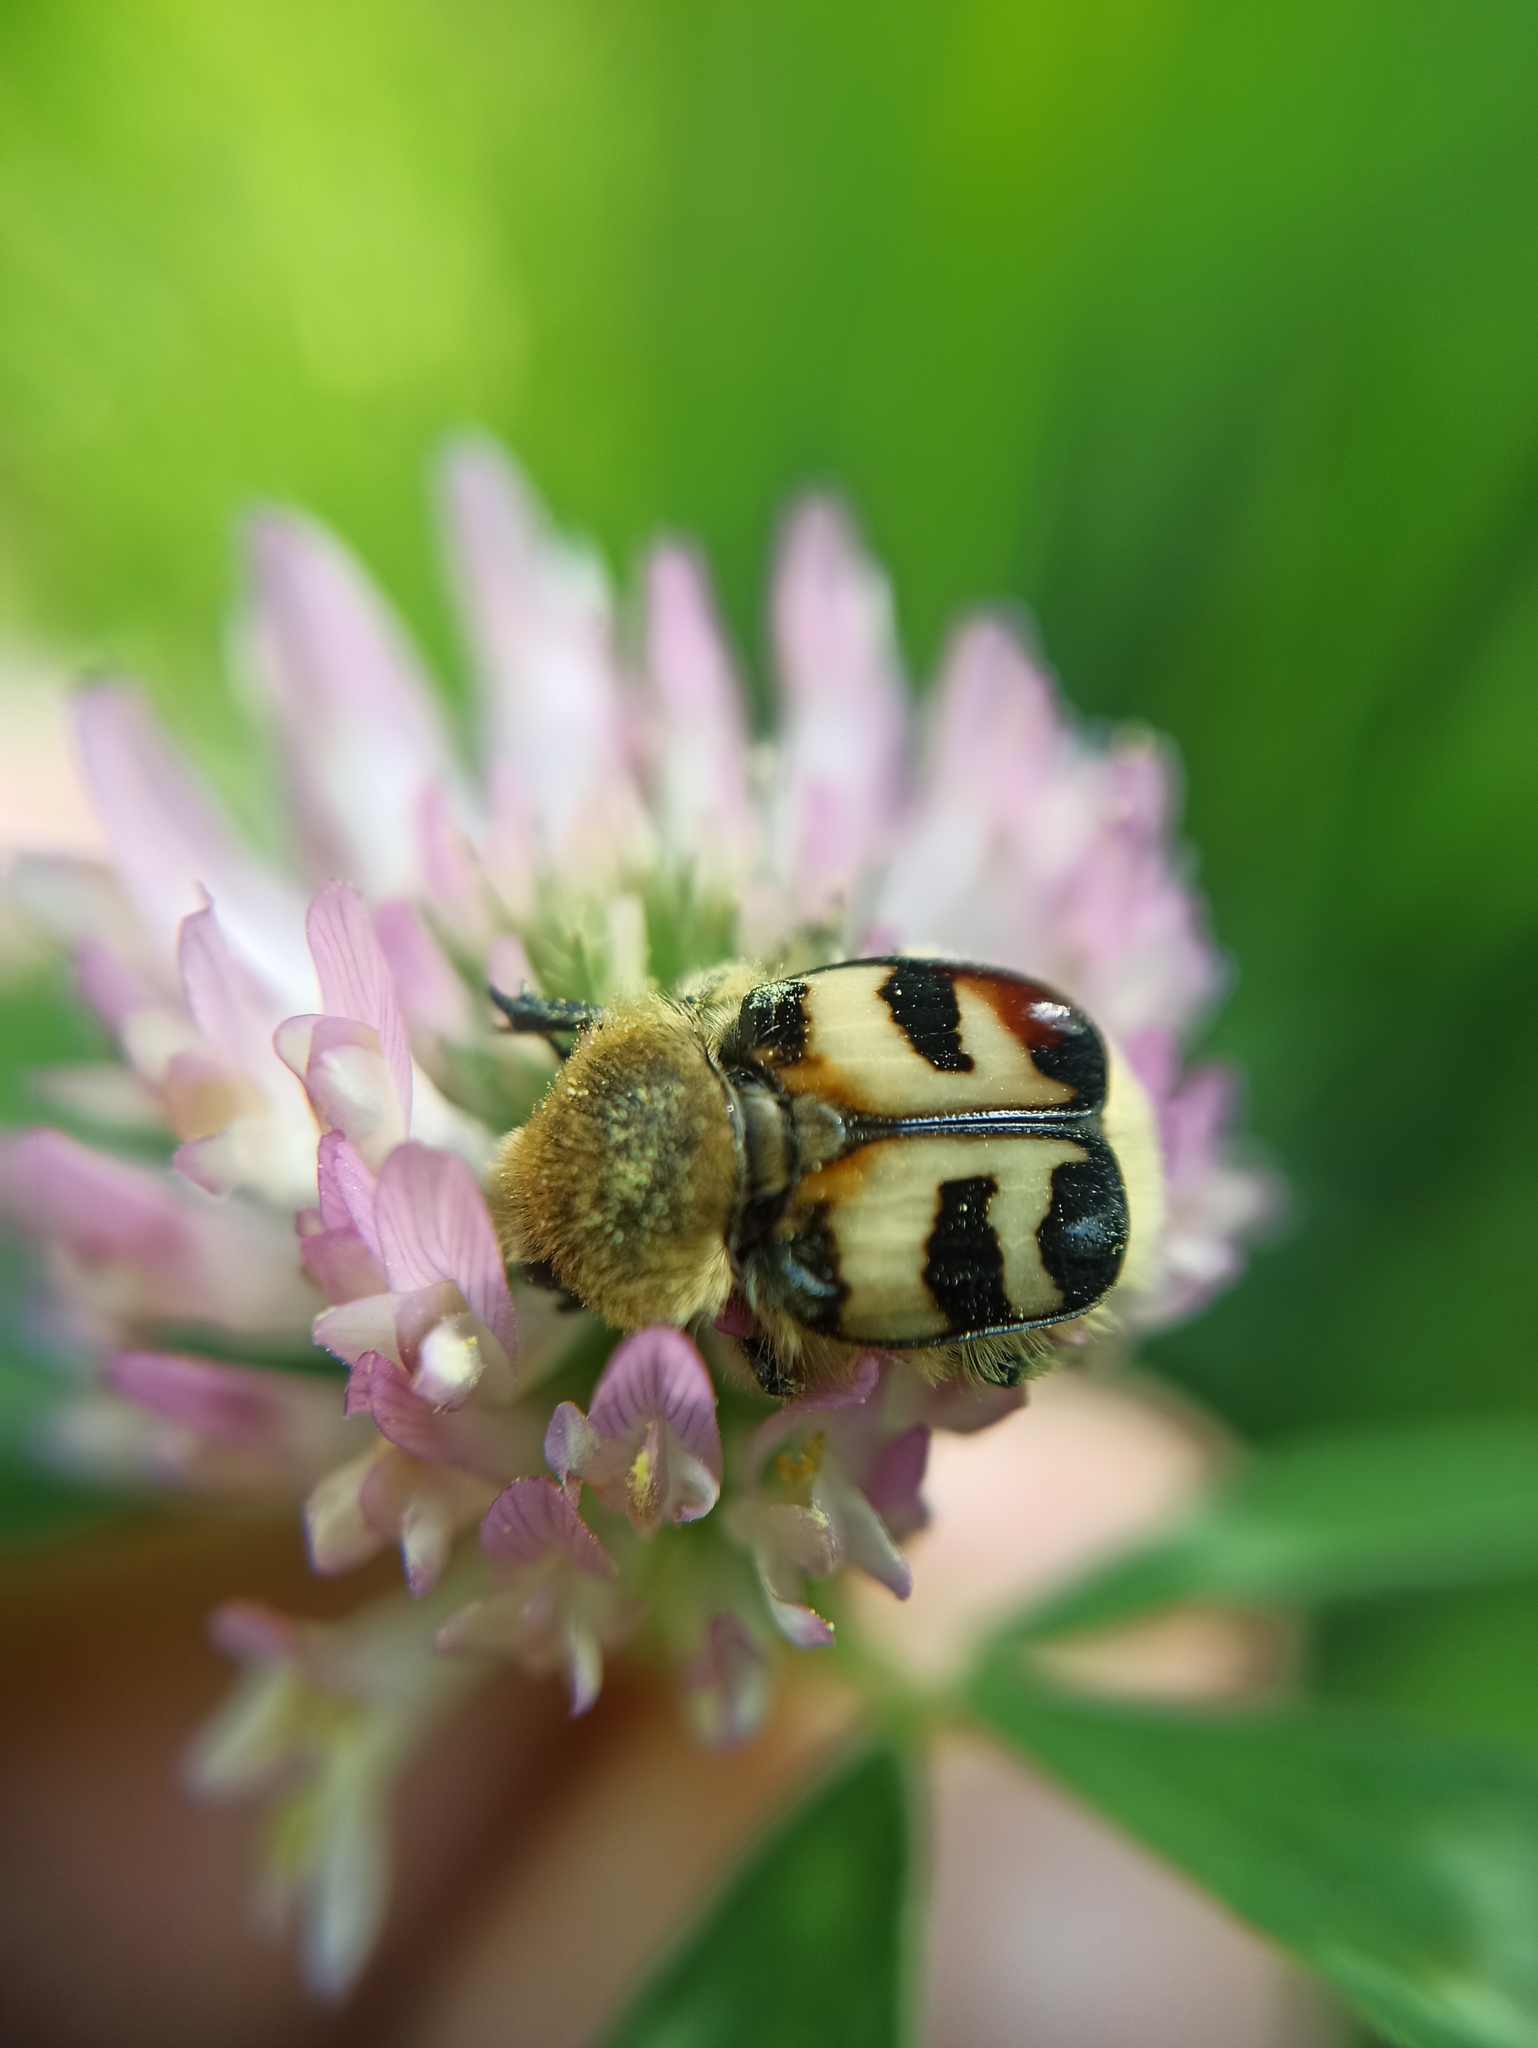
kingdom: Animalia
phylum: Arthropoda
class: Insecta
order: Coleoptera
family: Scarabaeidae
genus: Trichius
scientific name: Trichius fasciatus
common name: Bee beetle
